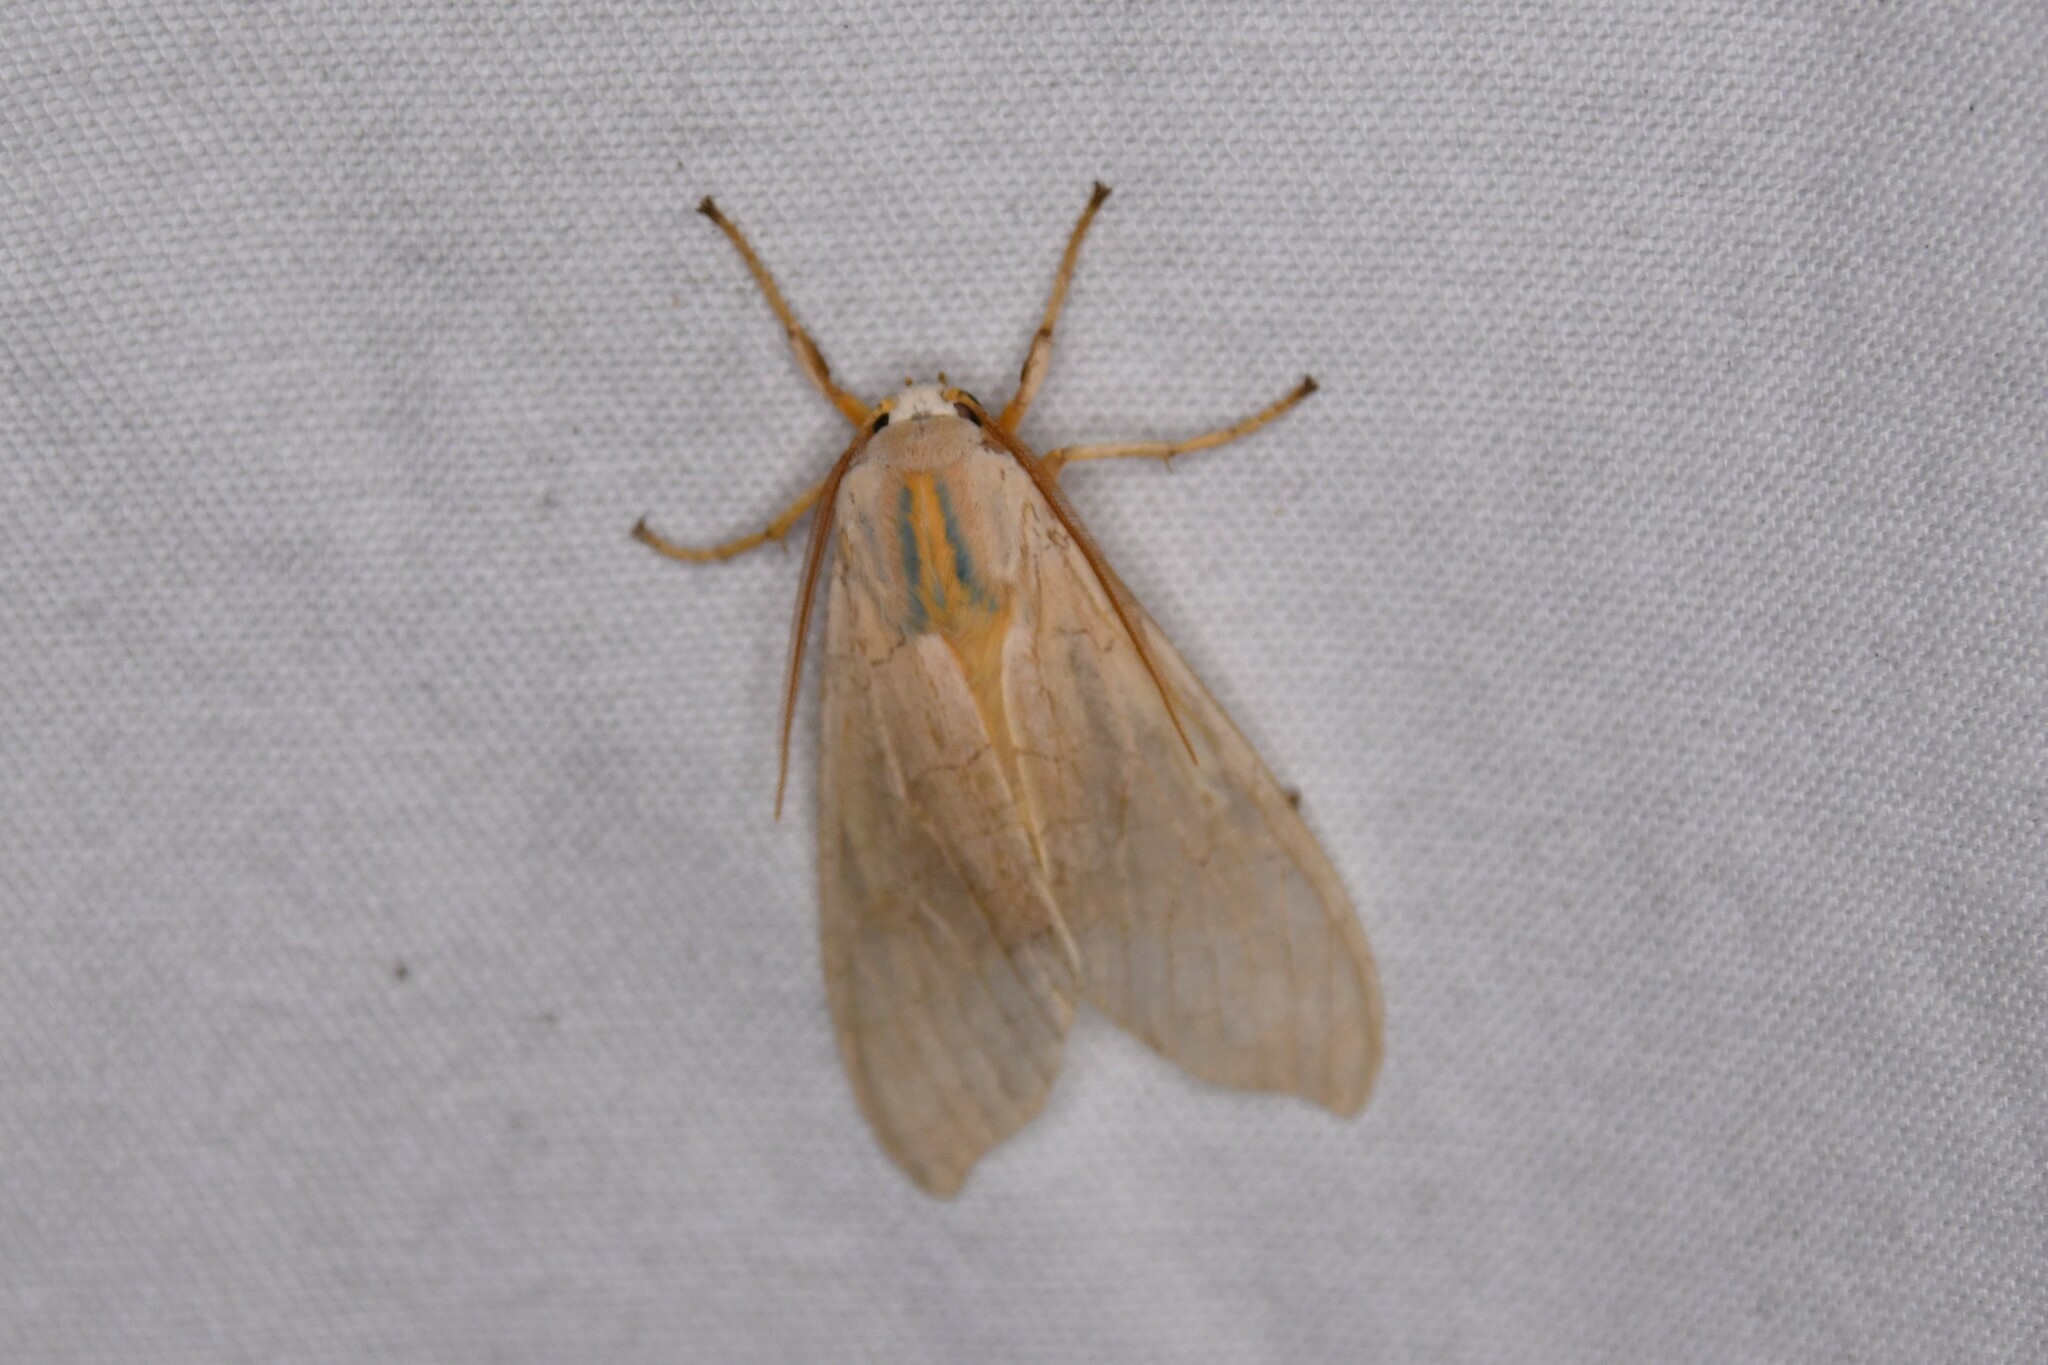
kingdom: Animalia
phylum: Arthropoda
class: Insecta
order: Lepidoptera
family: Erebidae
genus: Halysidota
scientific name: Halysidota tessellaris
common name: Banded tussock moth
